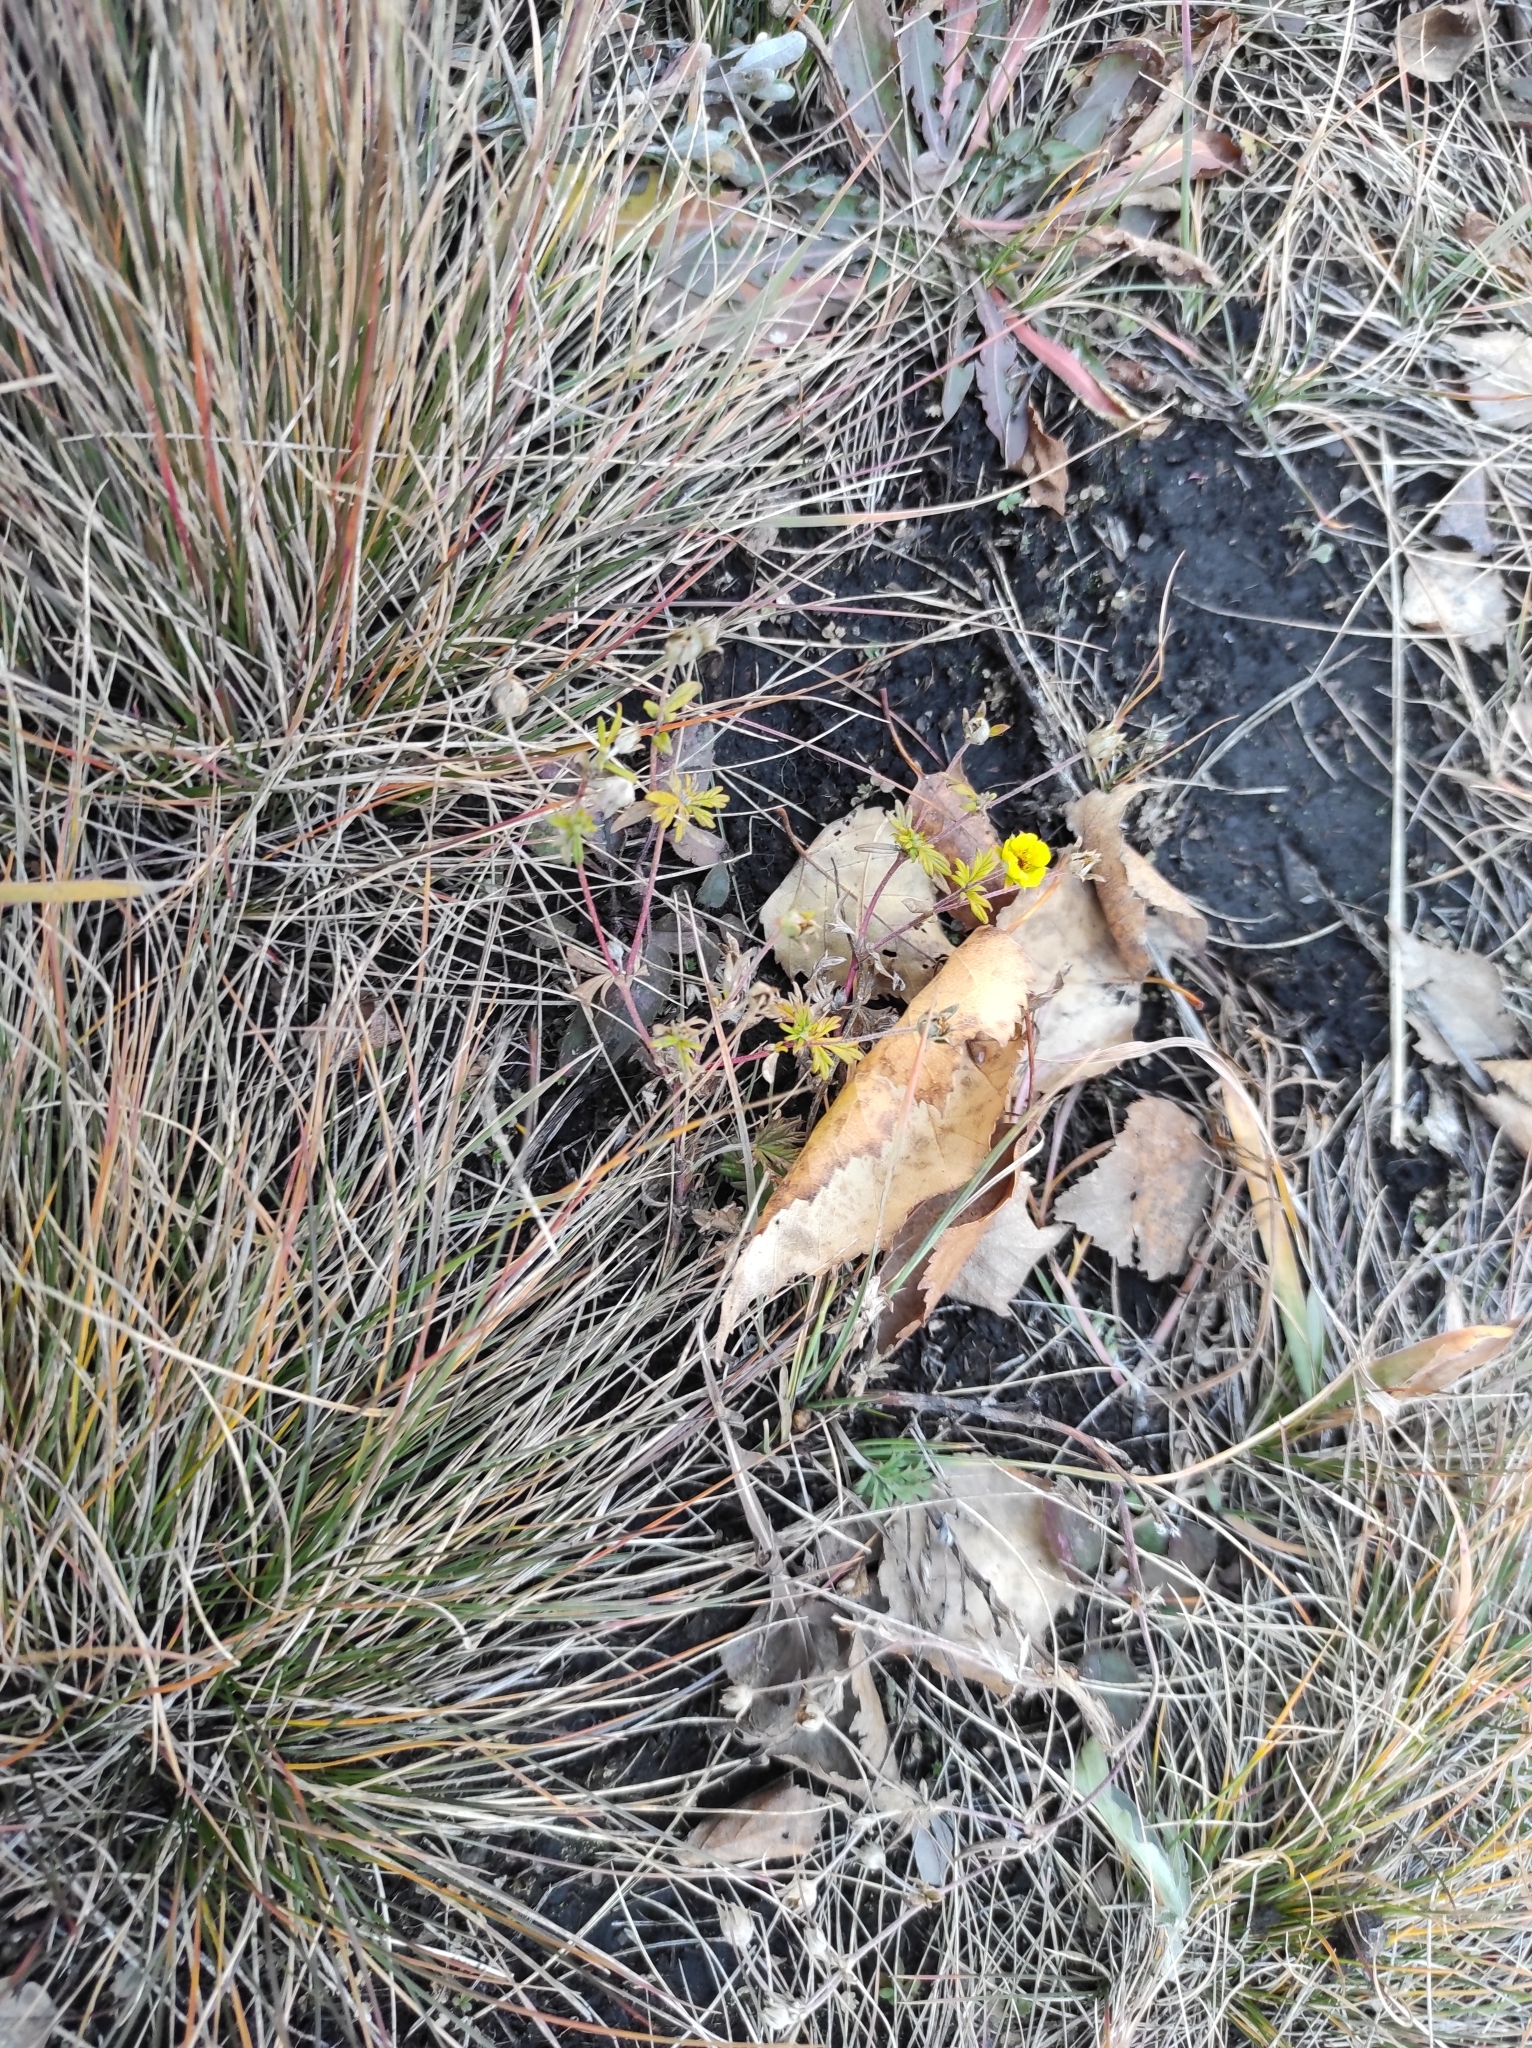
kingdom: Plantae
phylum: Tracheophyta
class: Magnoliopsida
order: Rosales
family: Rosaceae
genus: Potentilla
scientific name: Potentilla argentea
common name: Hoary cinquefoil
